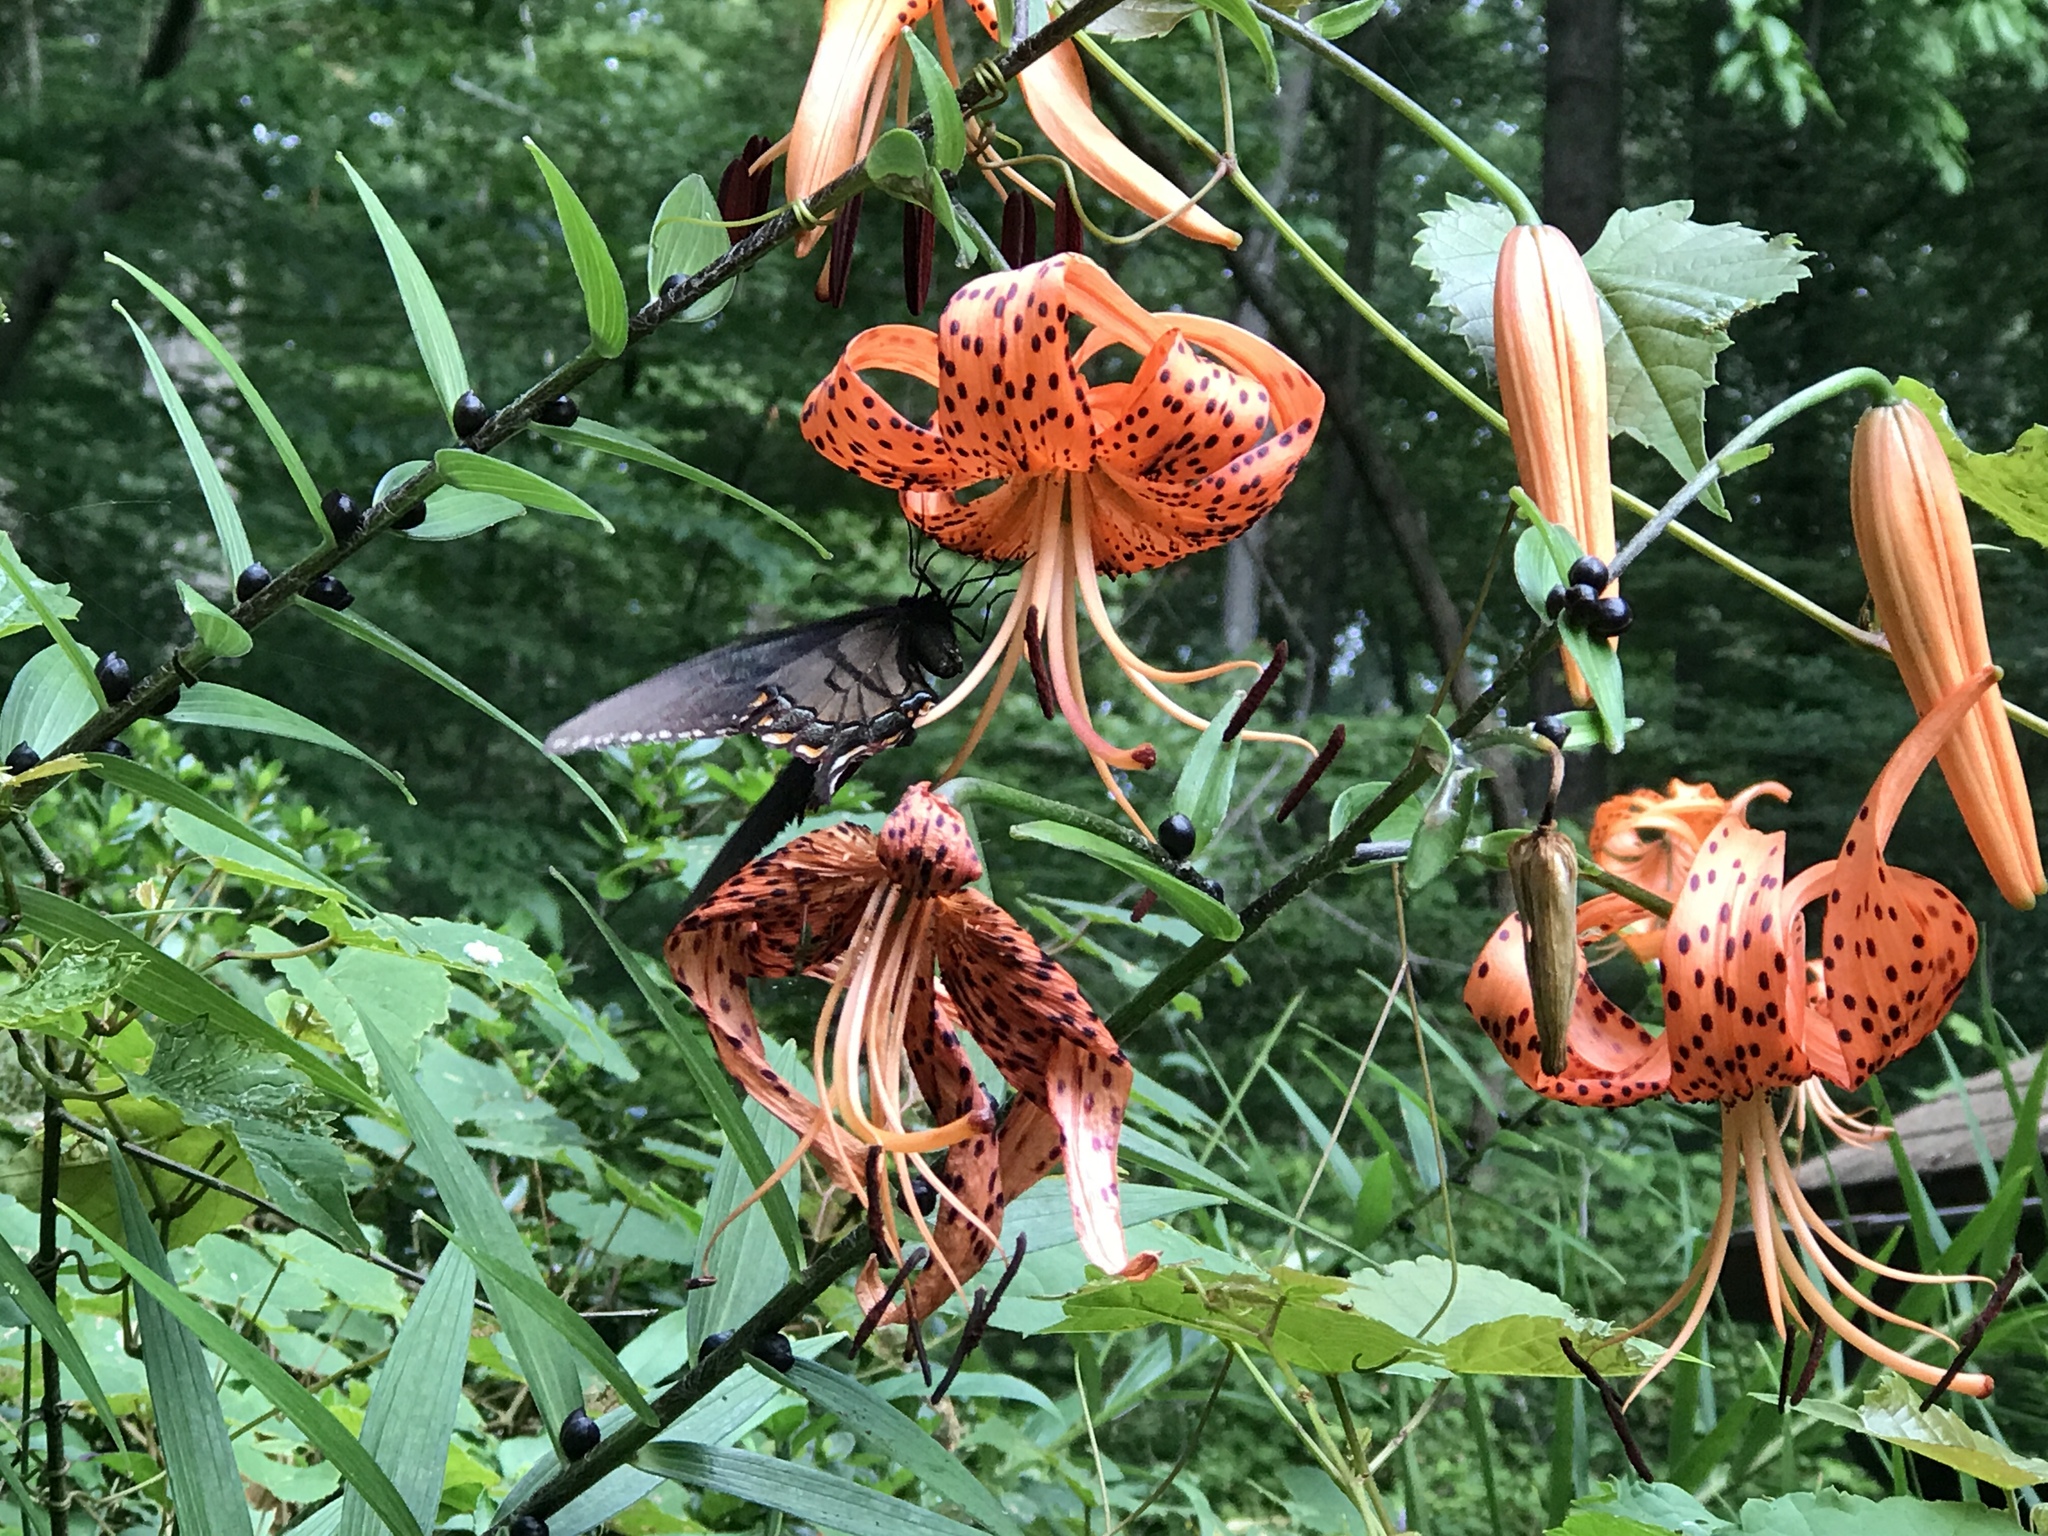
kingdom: Animalia
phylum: Arthropoda
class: Insecta
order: Lepidoptera
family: Papilionidae
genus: Papilio
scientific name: Papilio glaucus
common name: Tiger swallowtail
